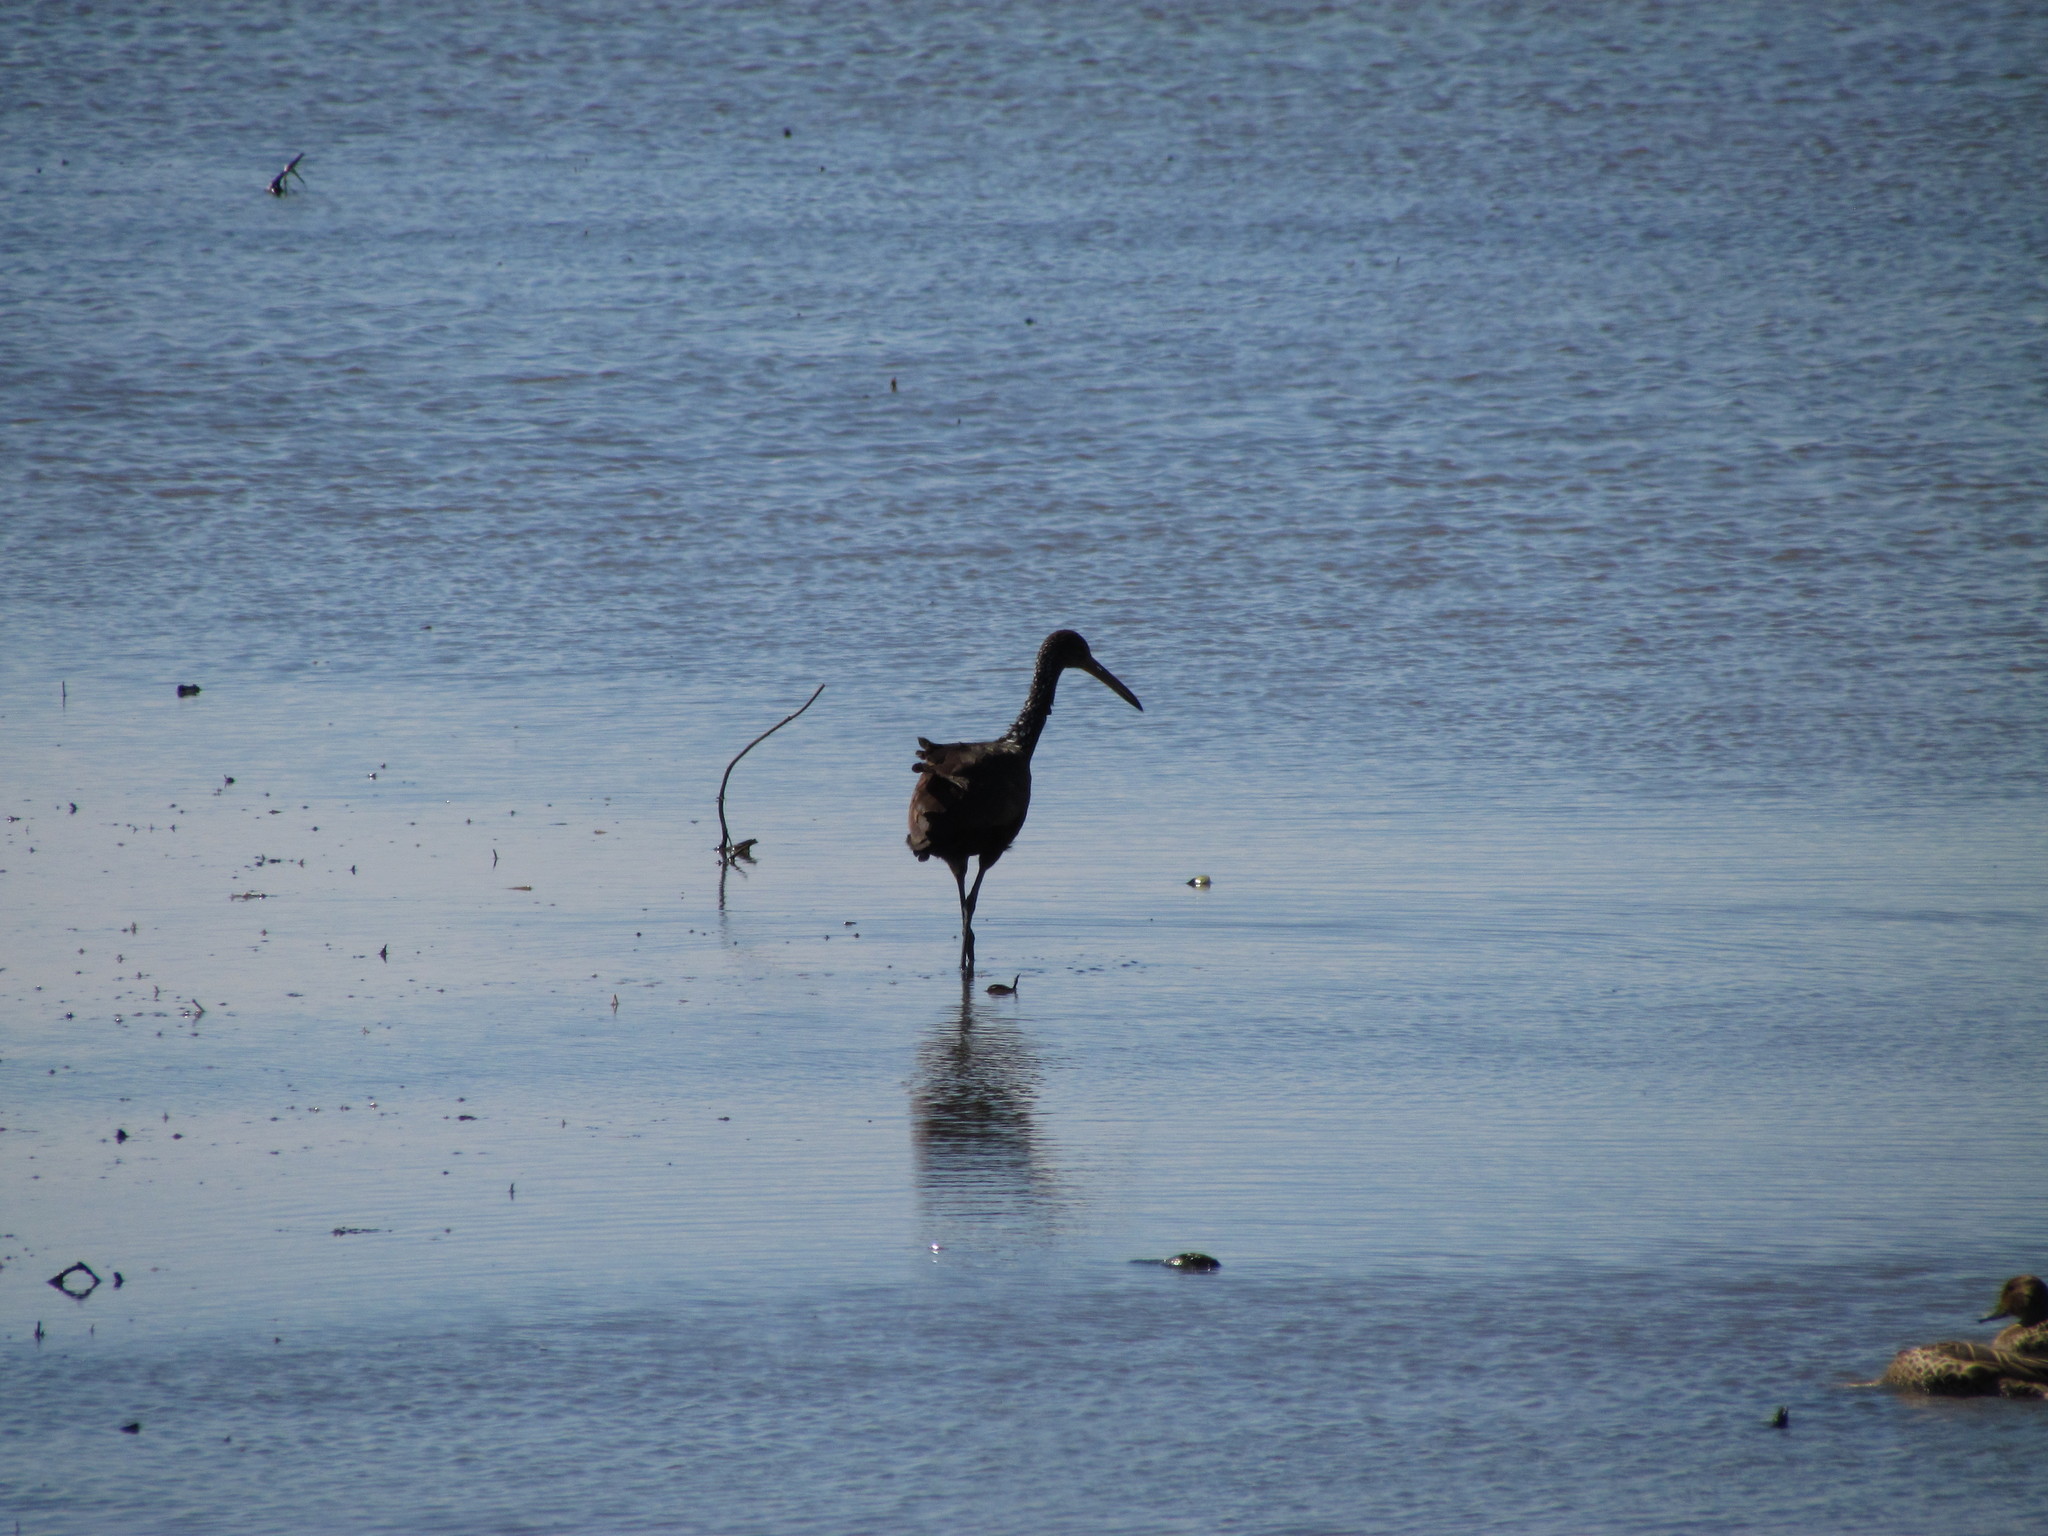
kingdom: Animalia
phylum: Chordata
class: Aves
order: Gruiformes
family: Aramidae
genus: Aramus
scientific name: Aramus guarauna
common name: Limpkin
